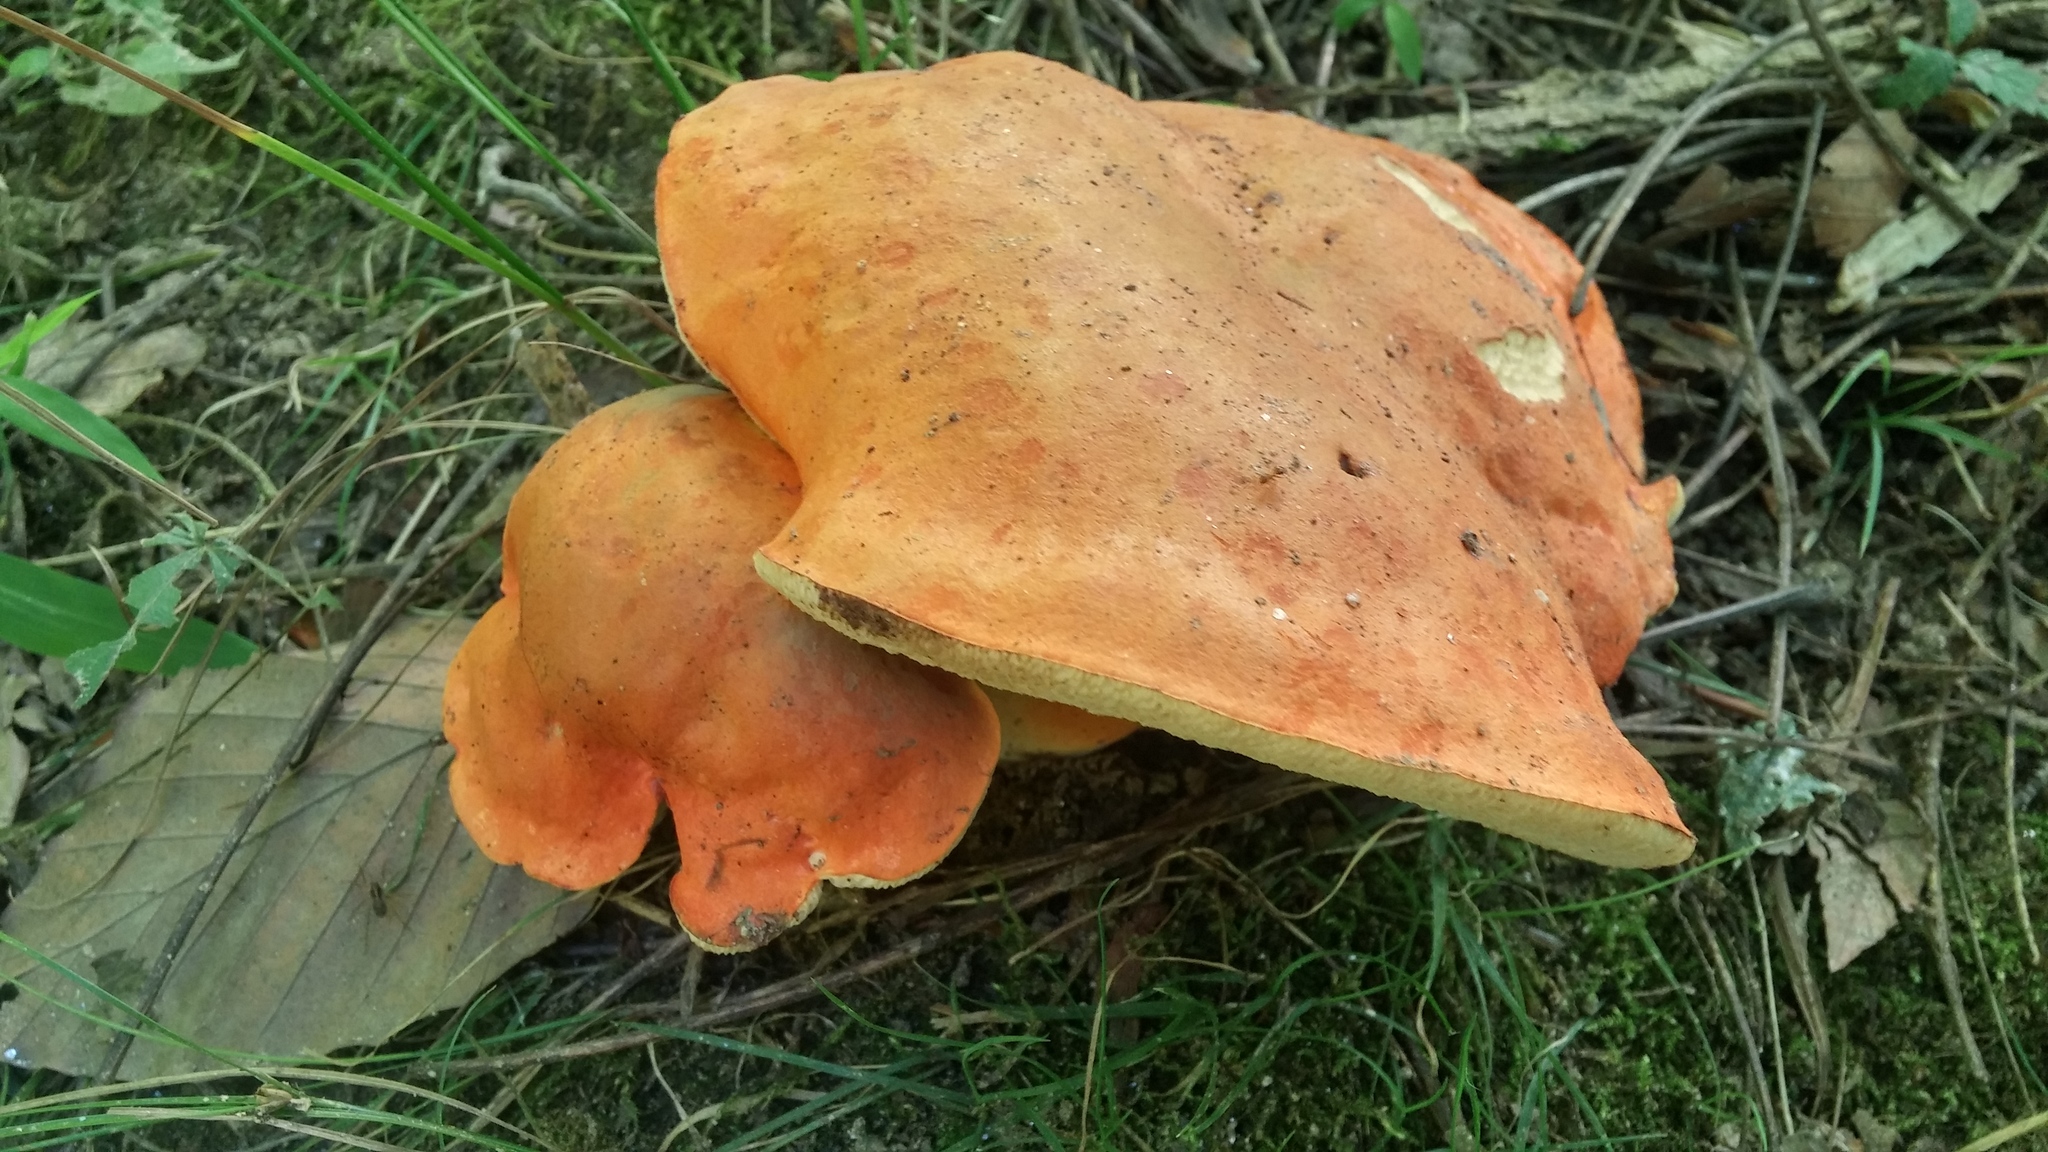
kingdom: Fungi
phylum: Basidiomycota
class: Agaricomycetes
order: Boletales
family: Boletaceae
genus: Tylopilus
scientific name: Tylopilus balloui
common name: Burnt-orange bolete
